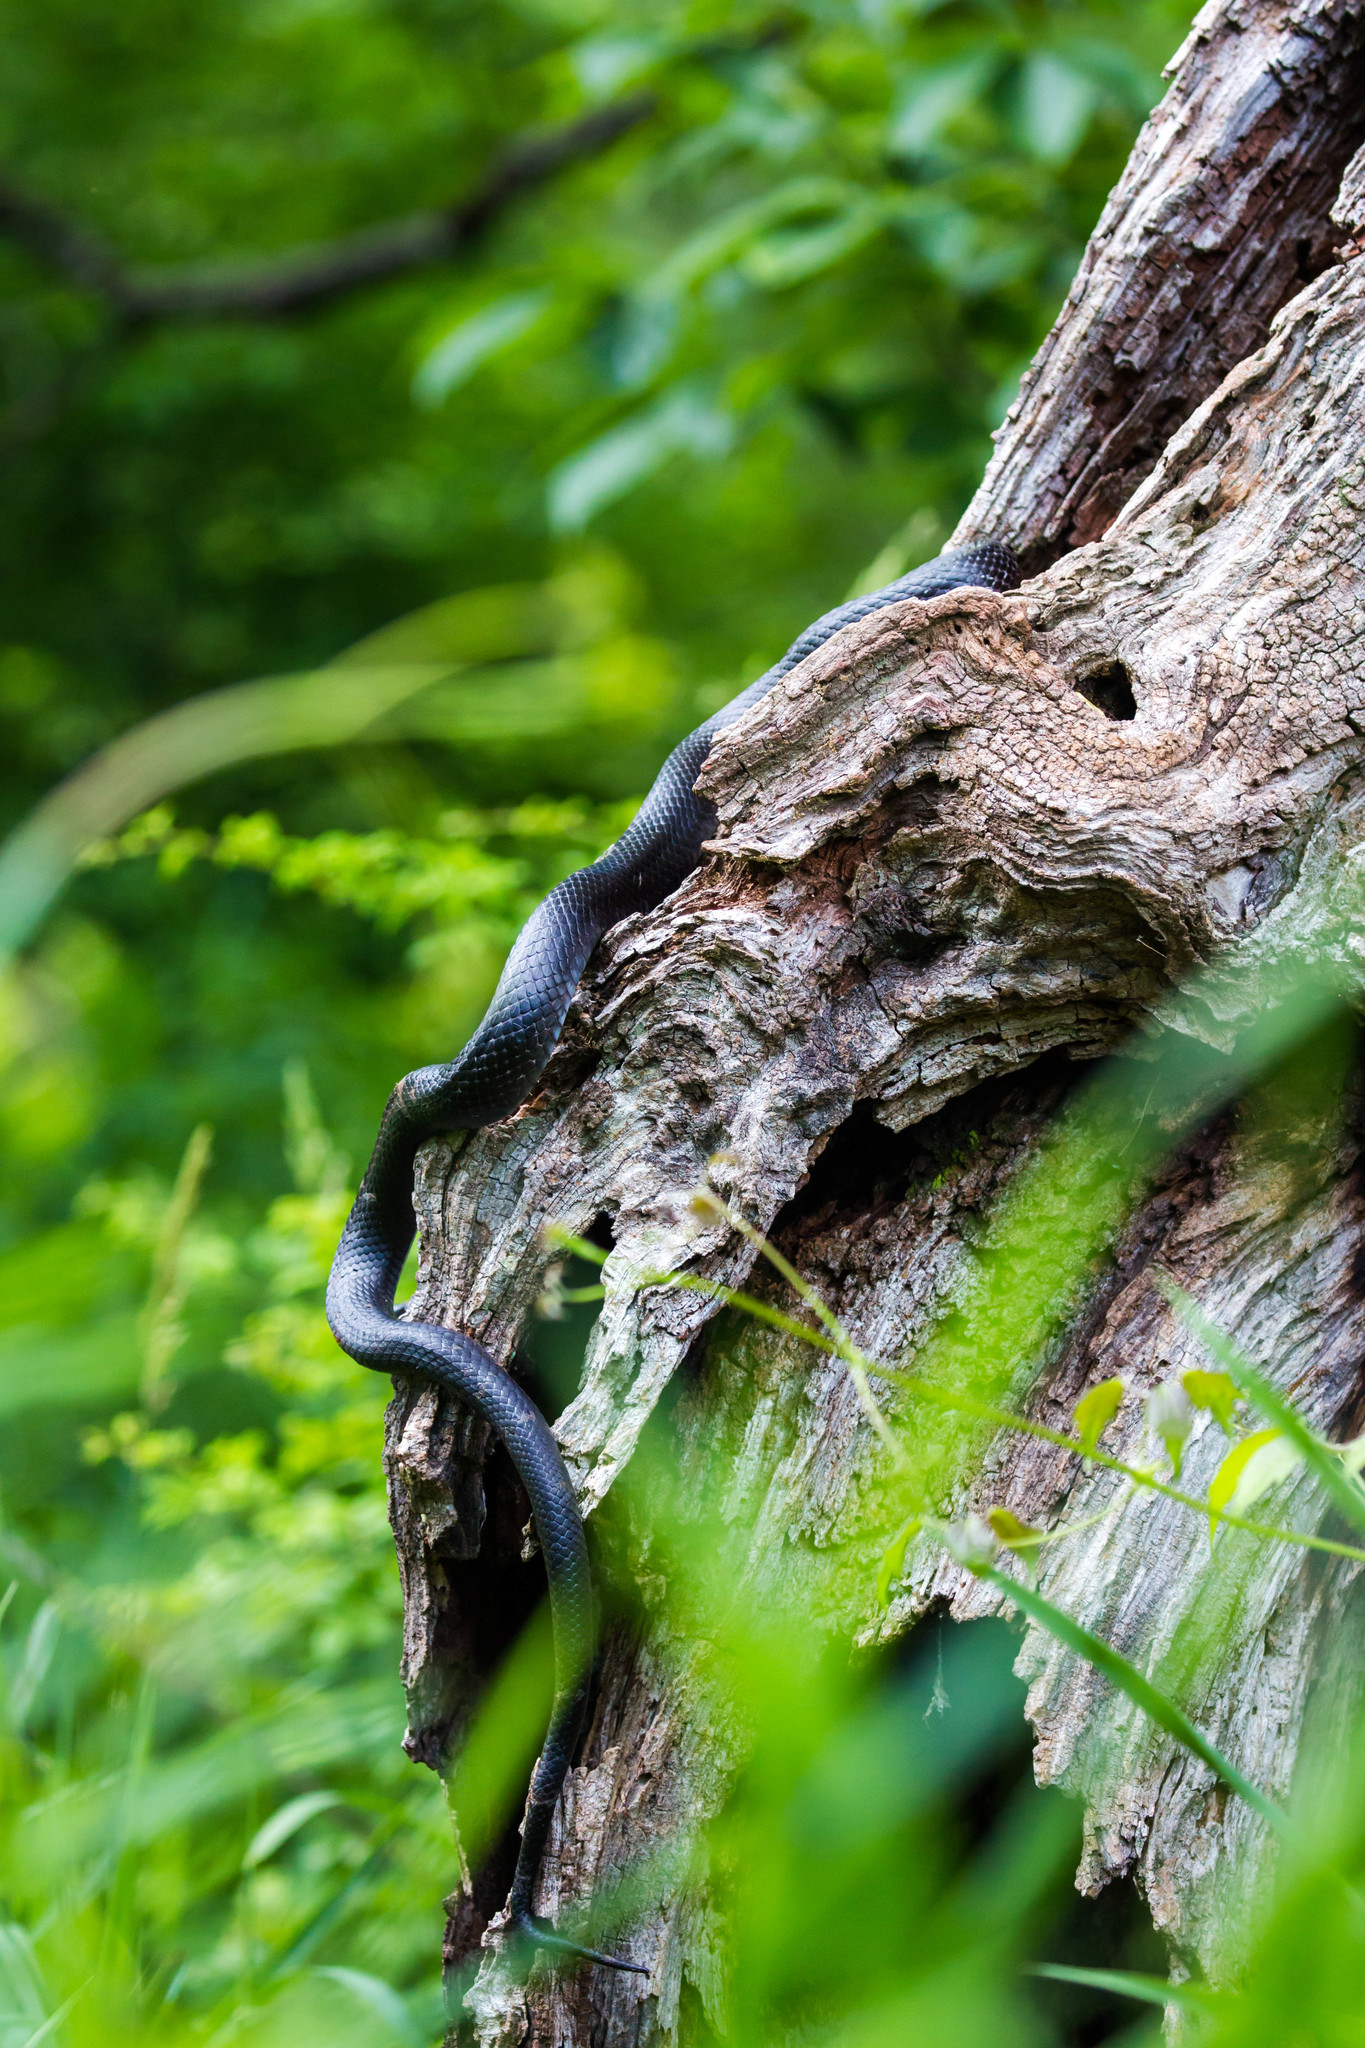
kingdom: Animalia
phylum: Chordata
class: Squamata
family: Colubridae
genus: Pantherophis
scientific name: Pantherophis alleghaniensis
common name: Eastern rat snake
